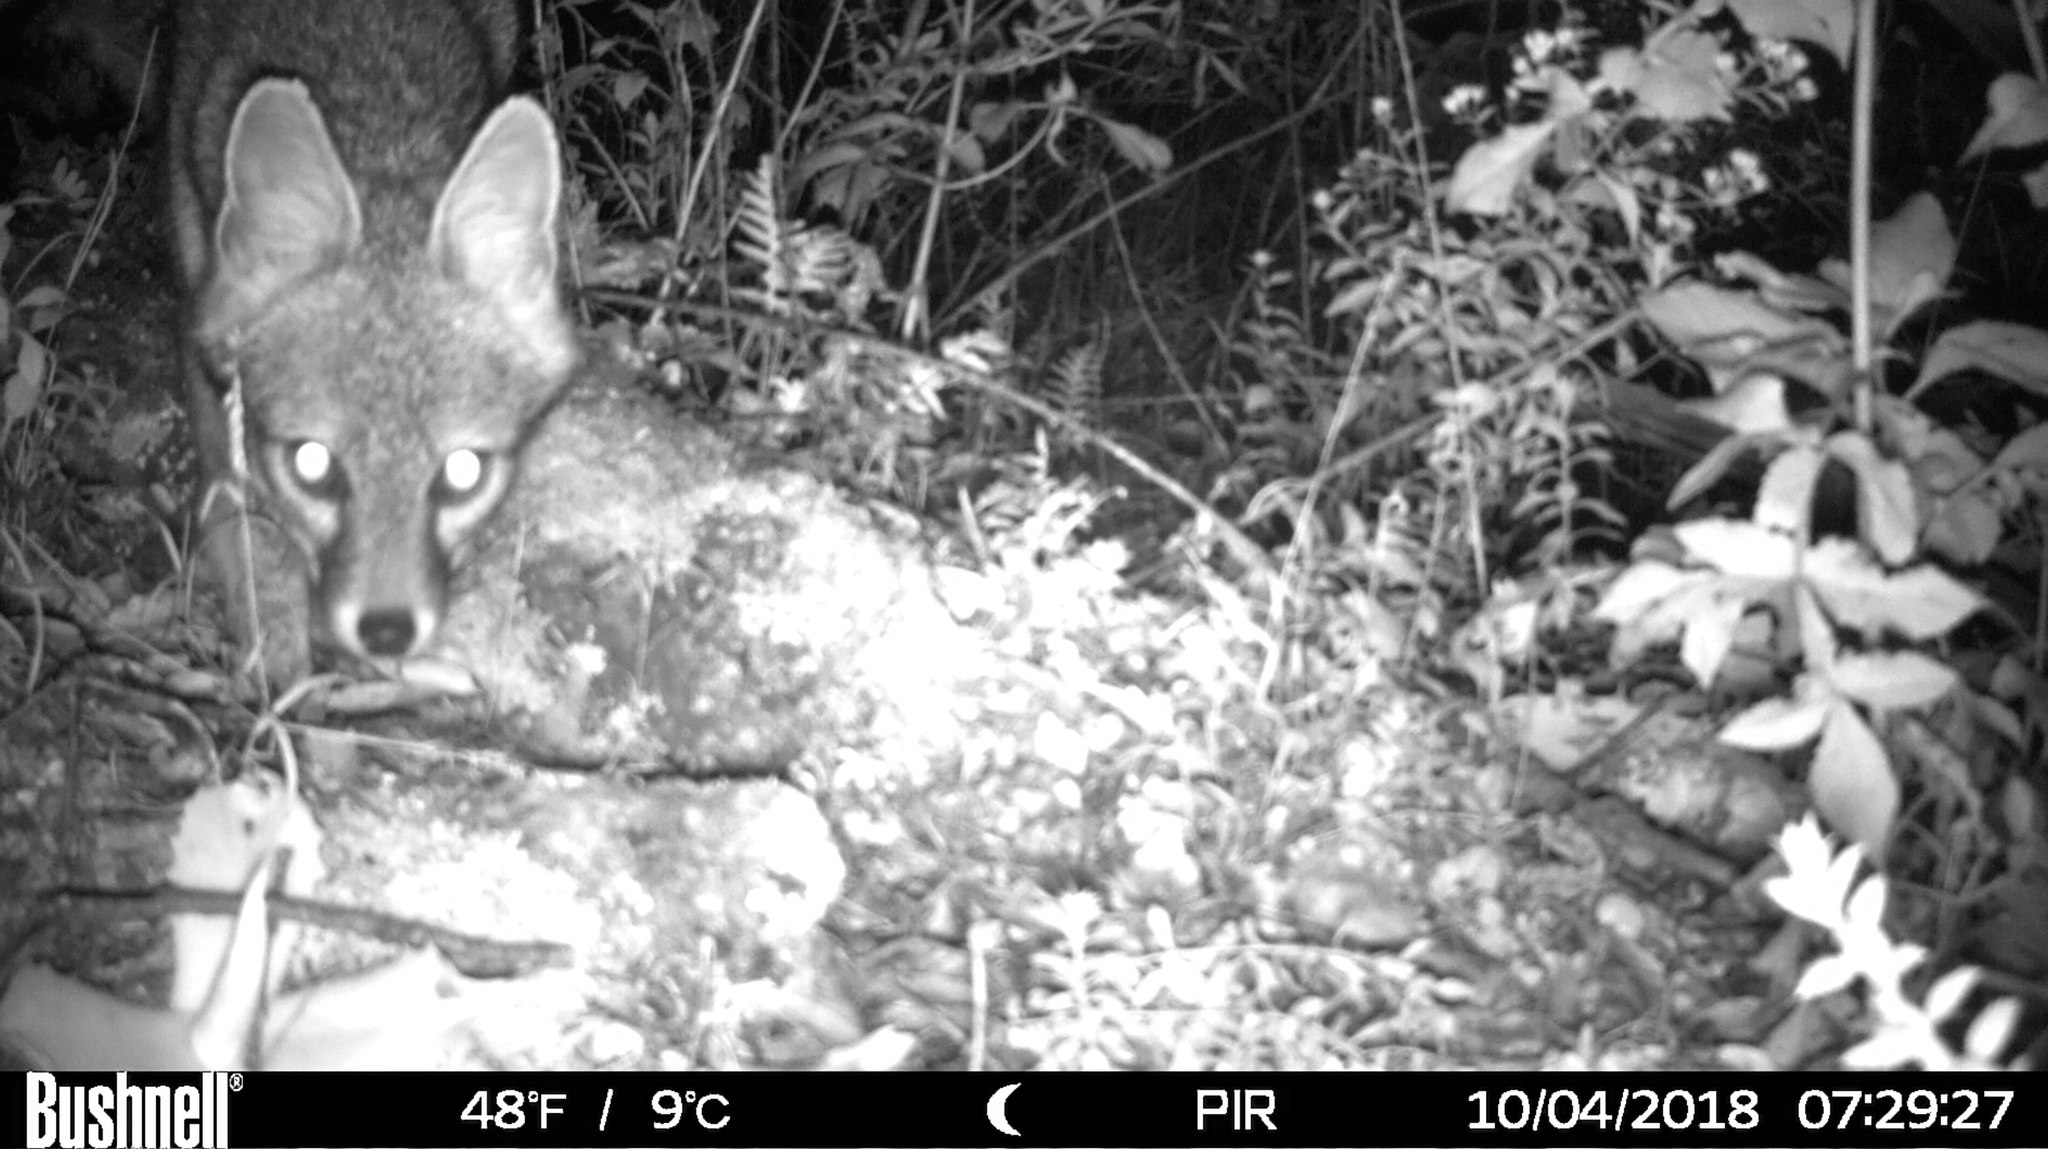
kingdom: Animalia
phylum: Chordata
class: Mammalia
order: Carnivora
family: Canidae
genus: Urocyon
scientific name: Urocyon cinereoargenteus
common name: Gray fox
